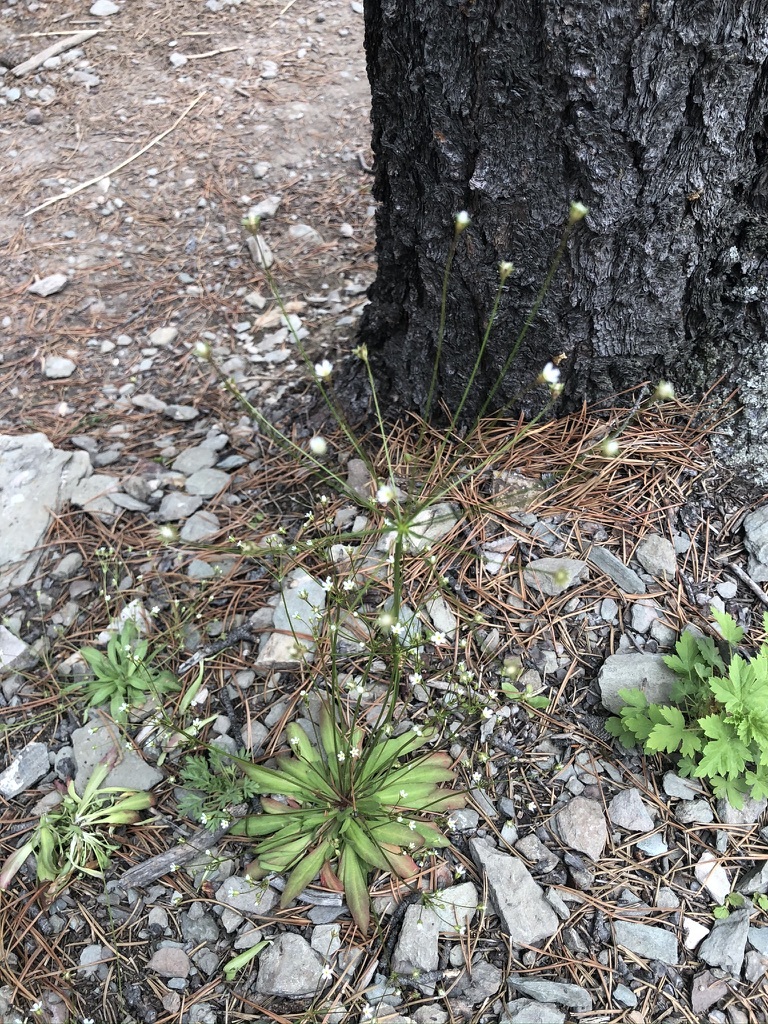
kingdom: Plantae
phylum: Tracheophyta
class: Magnoliopsida
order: Ericales
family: Primulaceae
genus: Androsace
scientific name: Androsace septentrionalis
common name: Hairy northern fairy-candelabra
